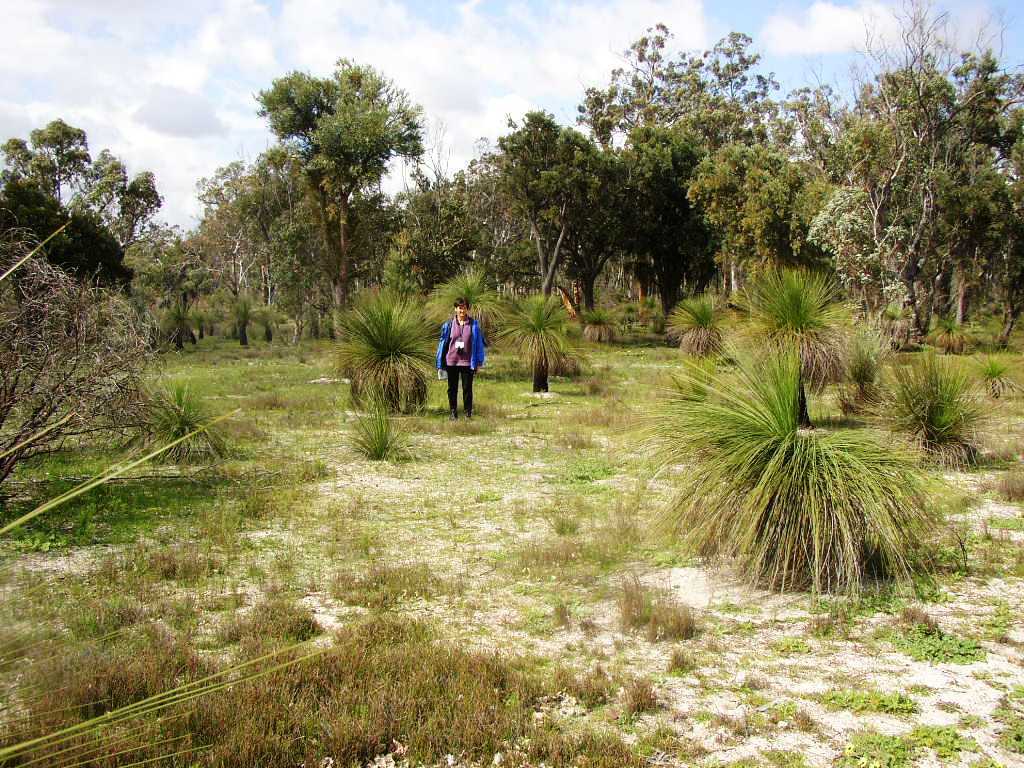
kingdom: Plantae
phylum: Tracheophyta
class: Liliopsida
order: Asparagales
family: Asphodelaceae
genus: Xanthorrhoea
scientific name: Xanthorrhoea preissii
